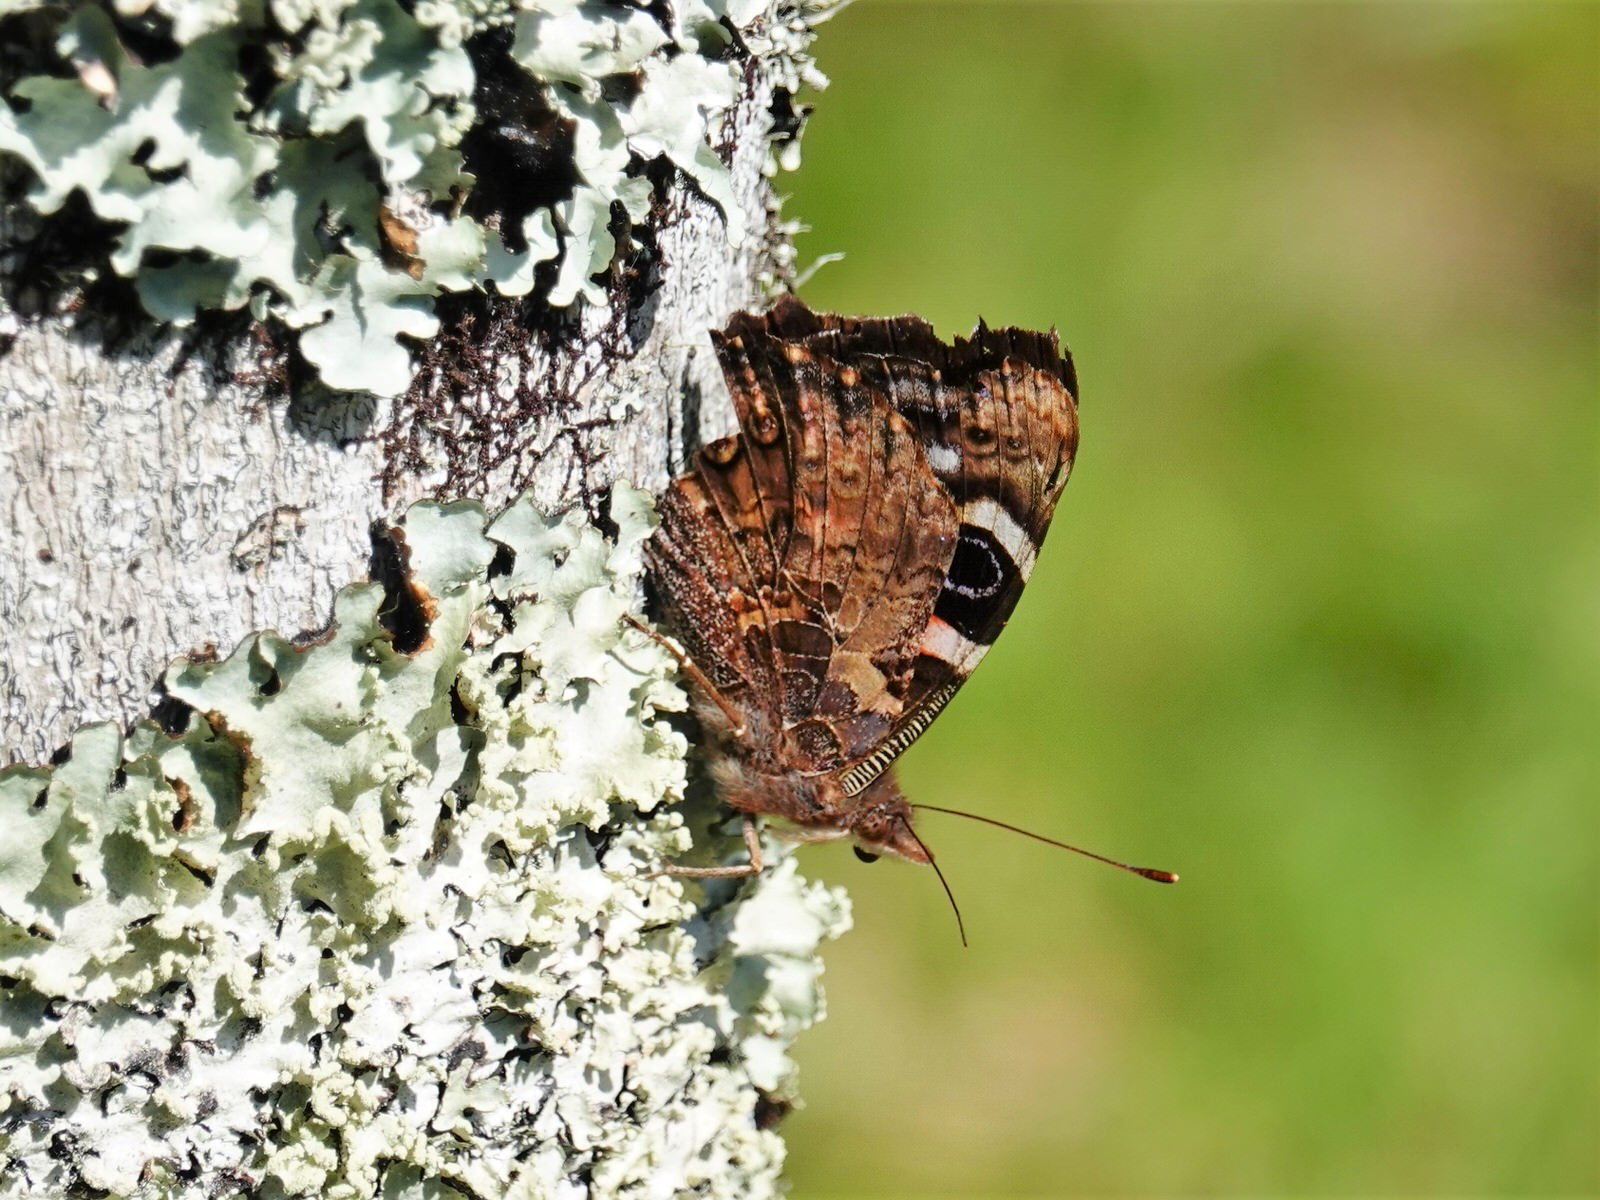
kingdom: Animalia
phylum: Arthropoda
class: Insecta
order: Lepidoptera
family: Nymphalidae
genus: Vanessa
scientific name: Vanessa gonerilla
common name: New zealand red admiral
